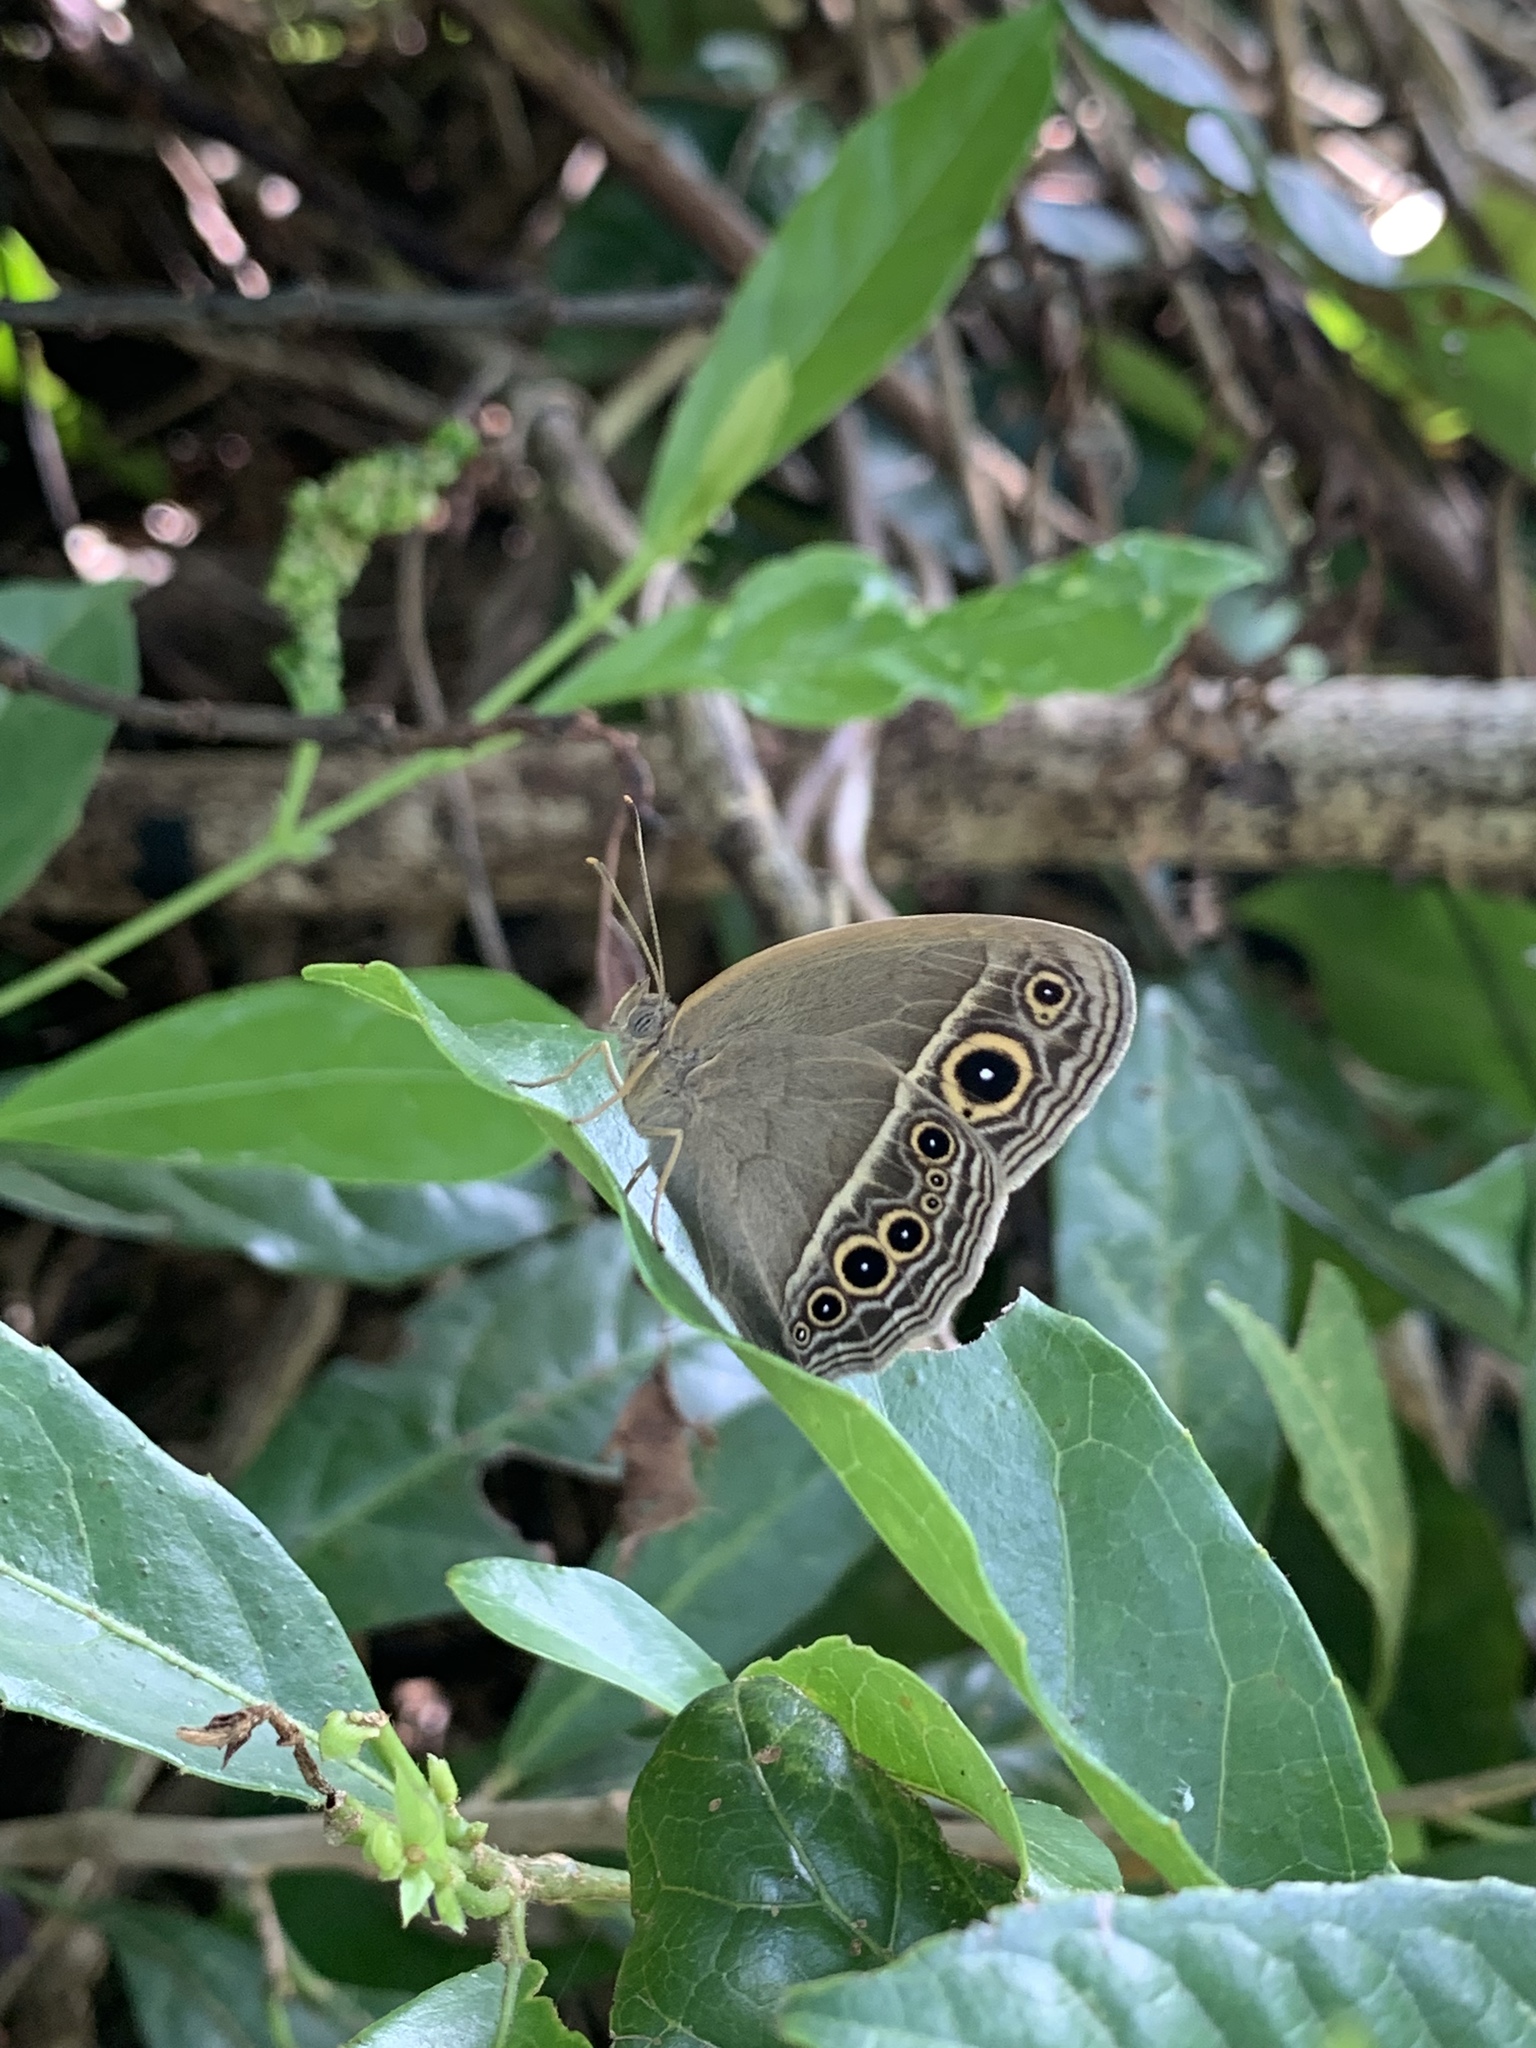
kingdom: Animalia
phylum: Arthropoda
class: Insecta
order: Lepidoptera
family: Nymphalidae
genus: Mycalesis
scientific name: Mycalesis mineus
